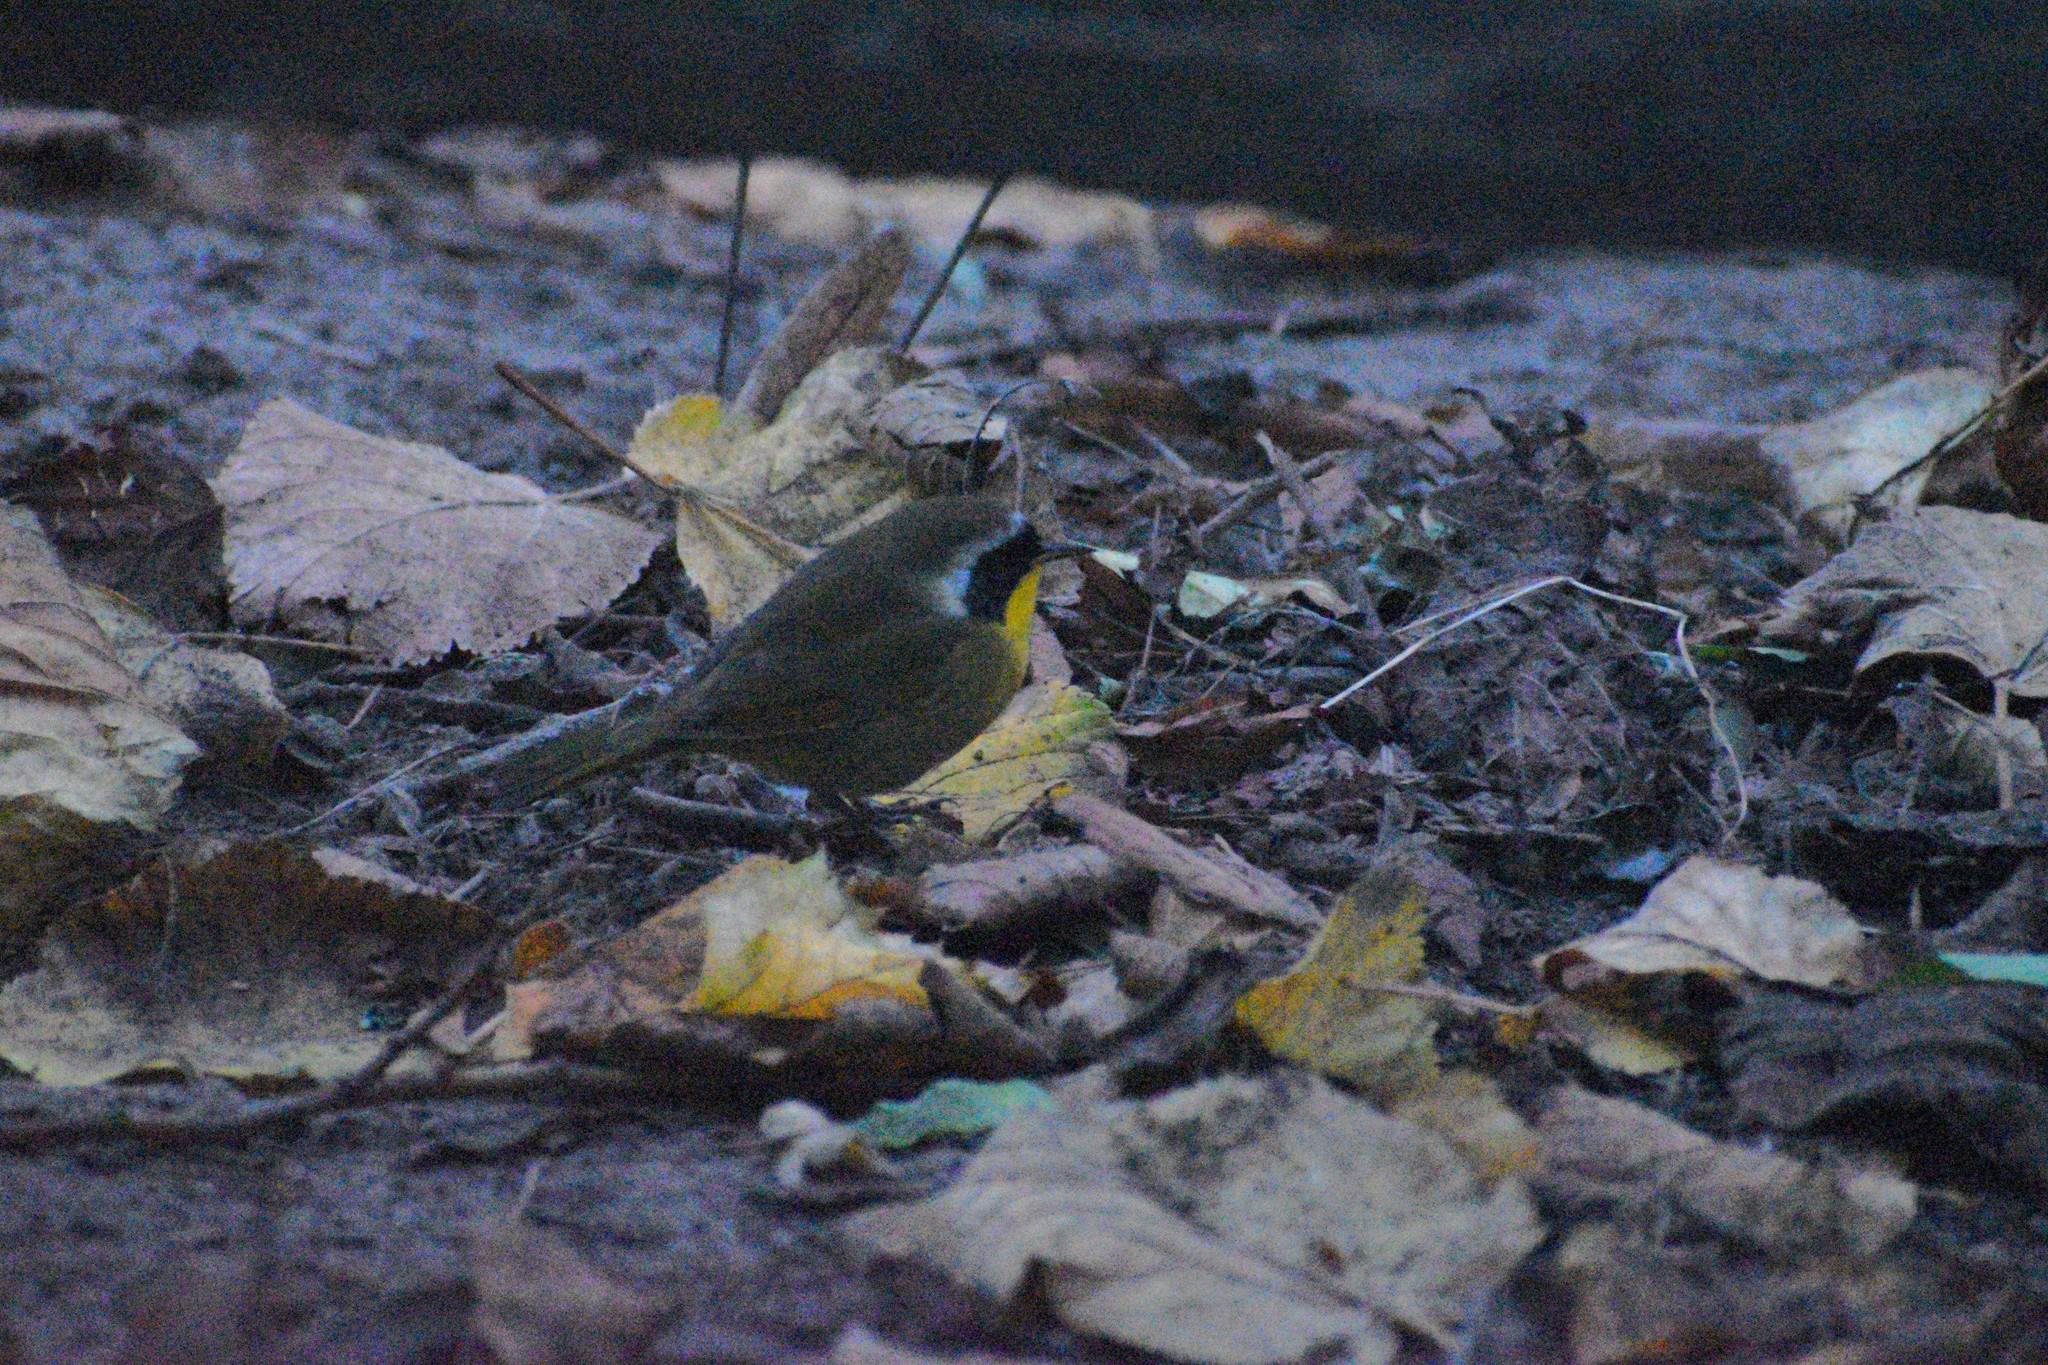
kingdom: Animalia
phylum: Chordata
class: Aves
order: Passeriformes
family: Parulidae
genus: Geothlypis
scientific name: Geothlypis trichas
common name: Common yellowthroat
